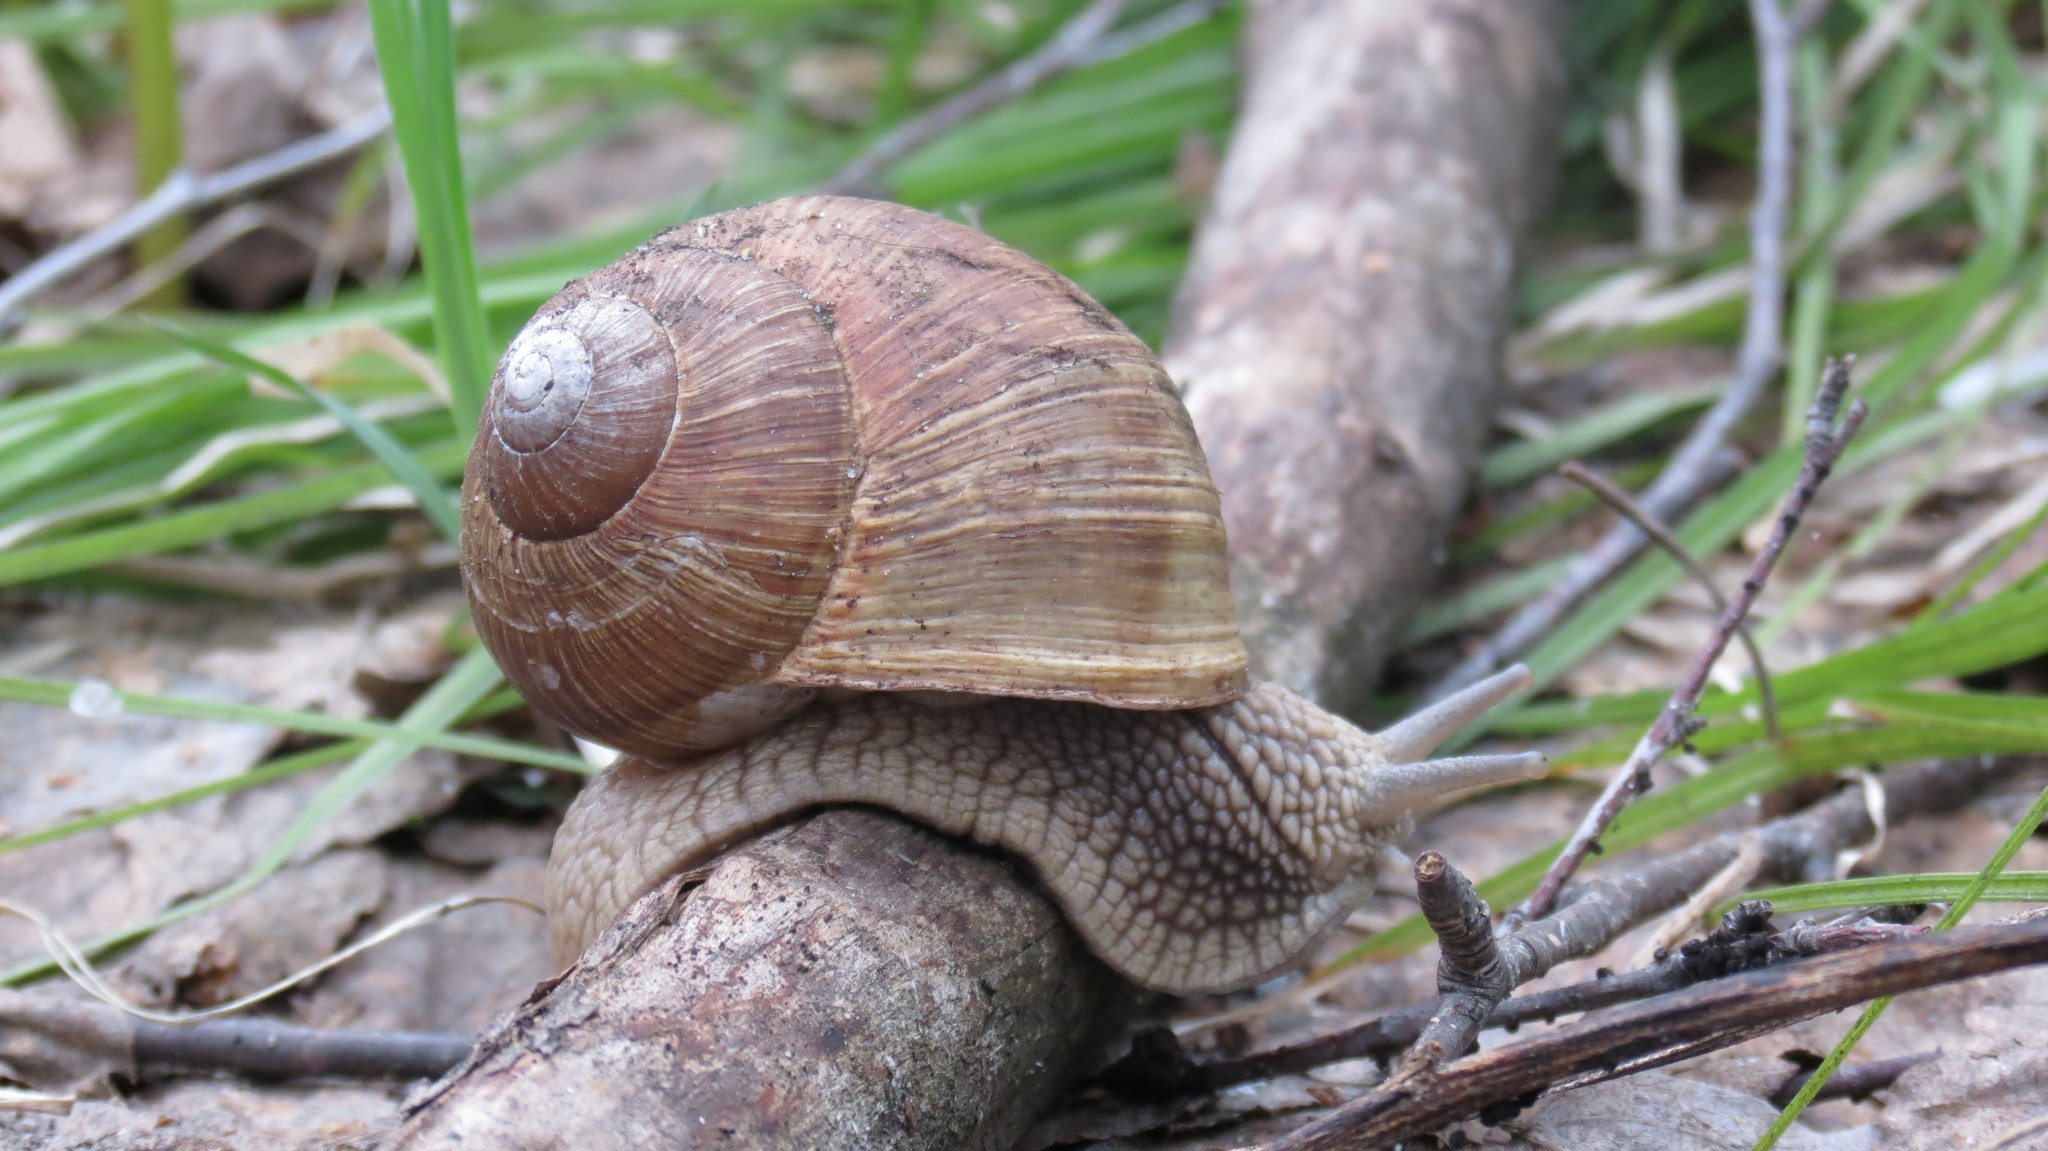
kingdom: Animalia
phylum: Mollusca
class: Gastropoda
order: Stylommatophora
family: Helicidae
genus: Helix
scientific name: Helix pomatia
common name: Roman snail
